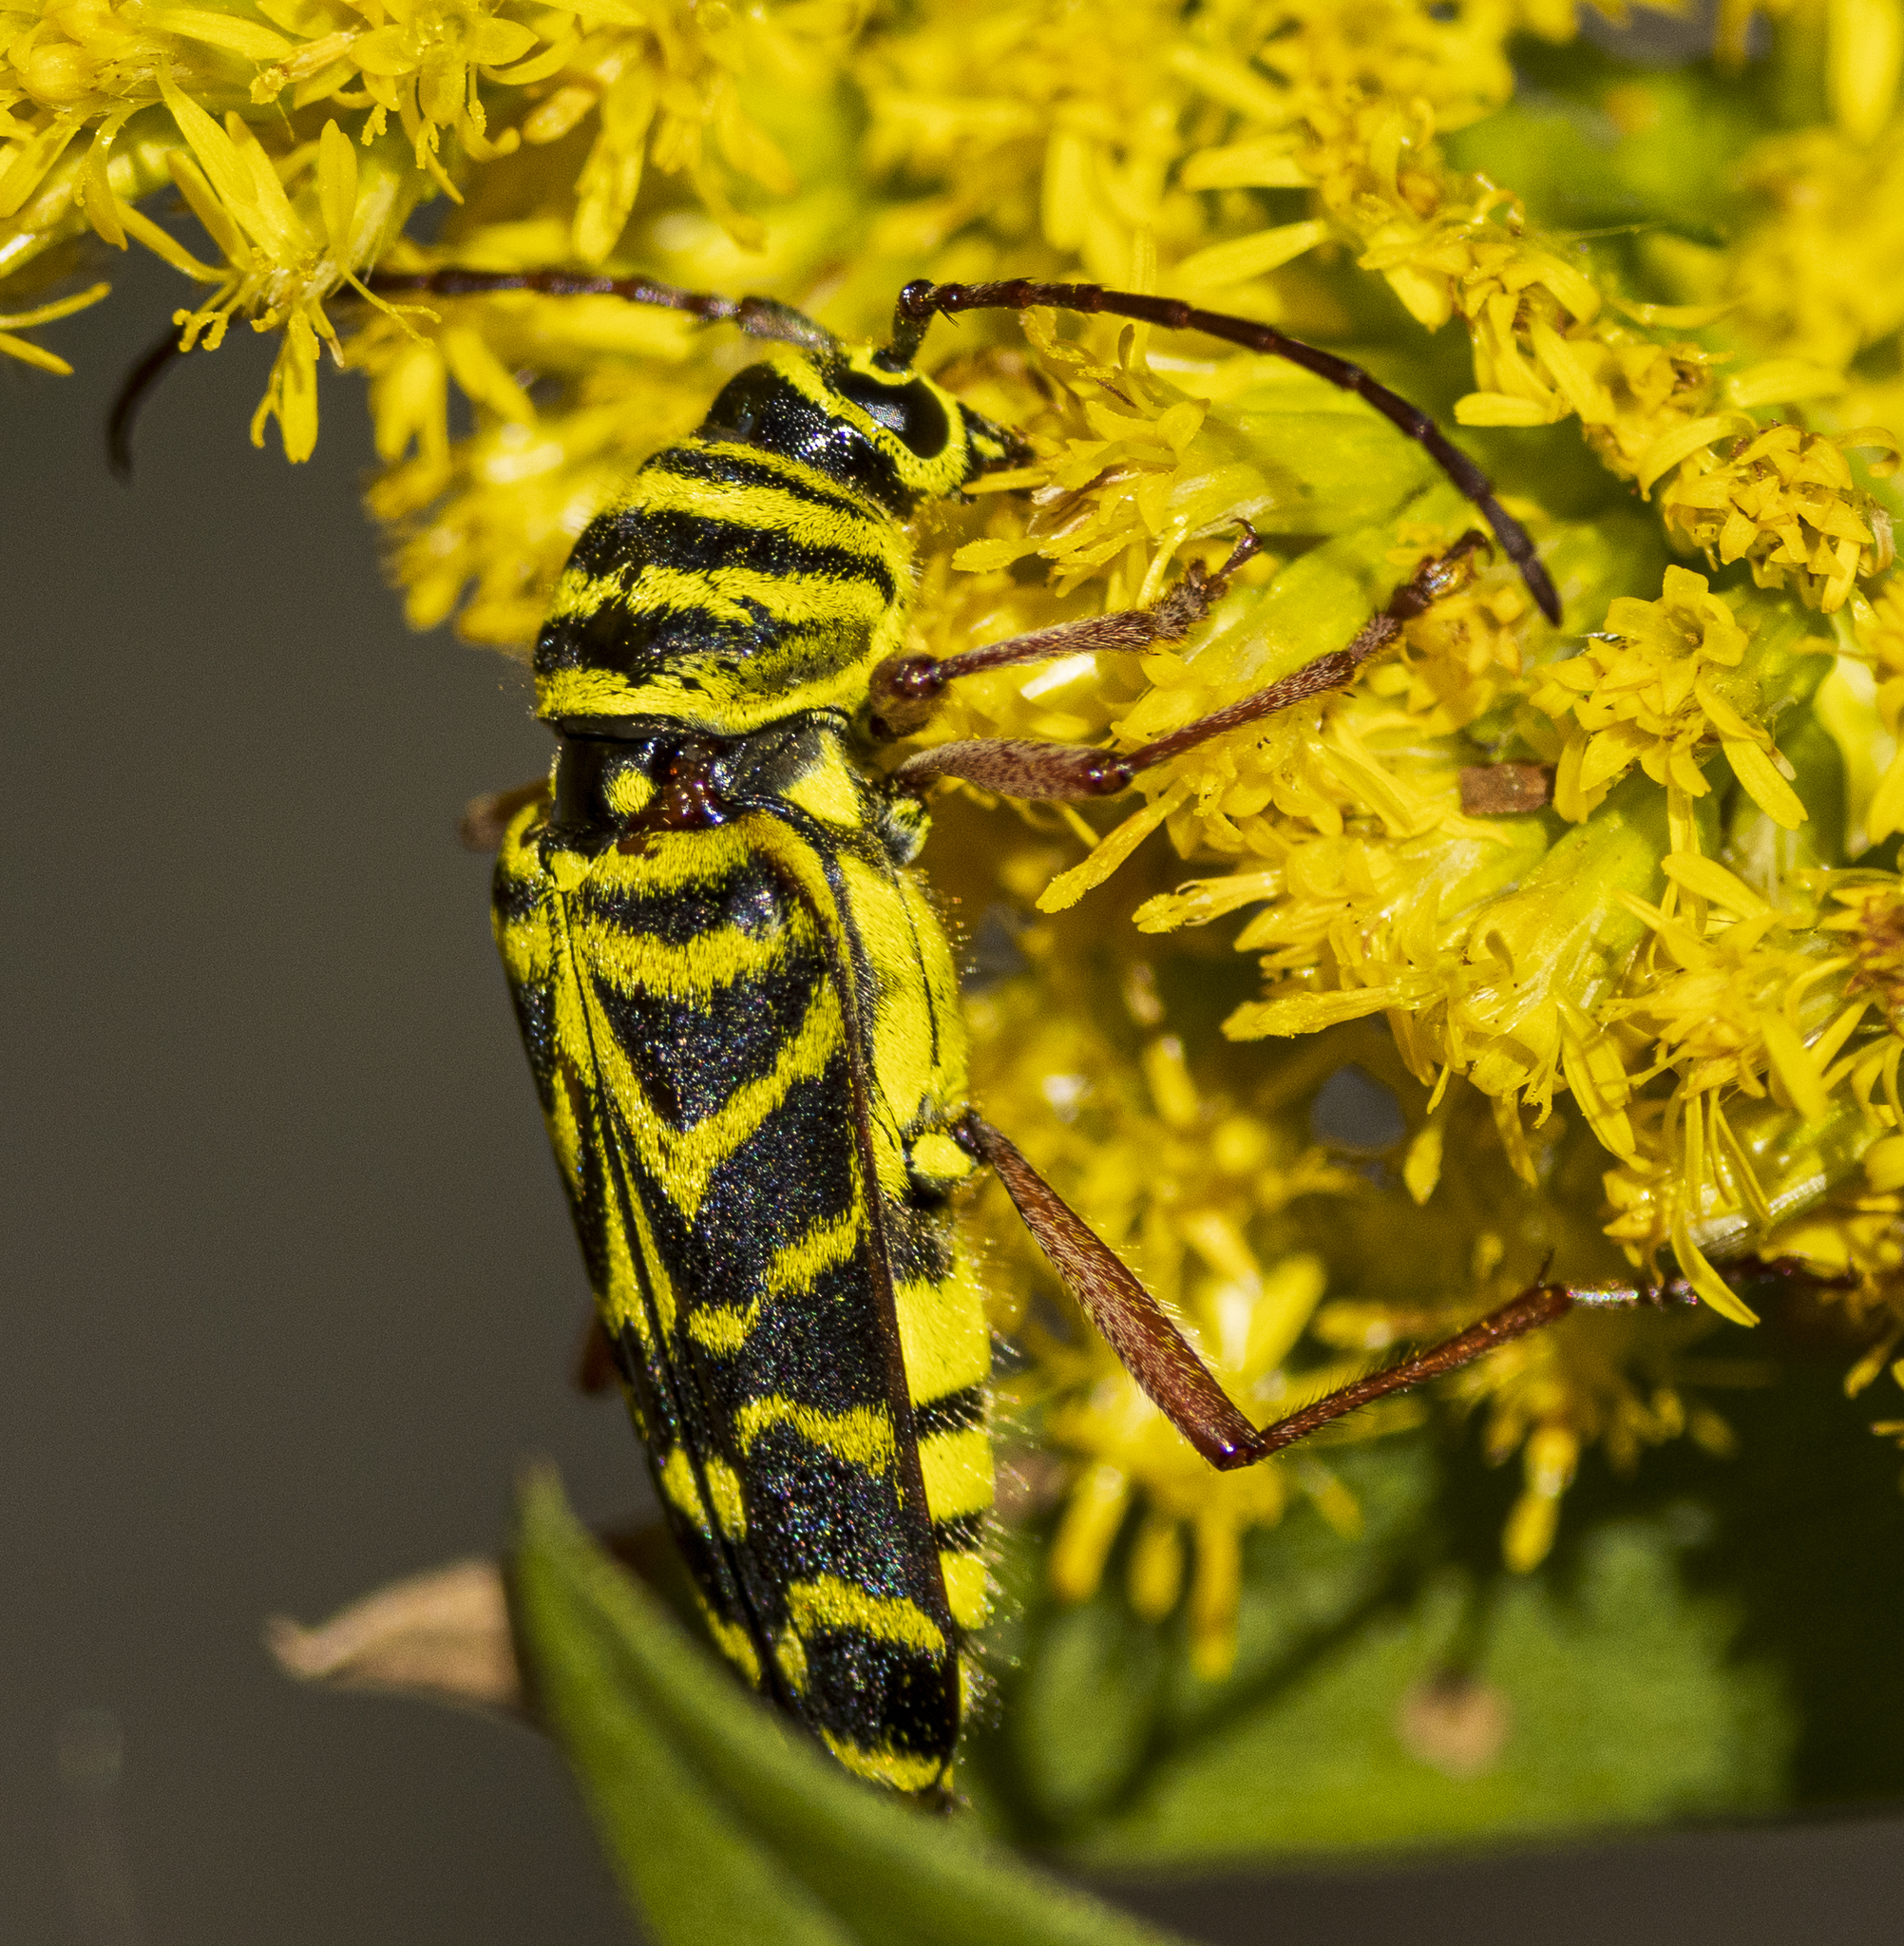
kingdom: Animalia
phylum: Arthropoda
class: Insecta
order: Coleoptera
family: Cerambycidae
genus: Megacyllene
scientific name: Megacyllene robiniae
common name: Locust borer
